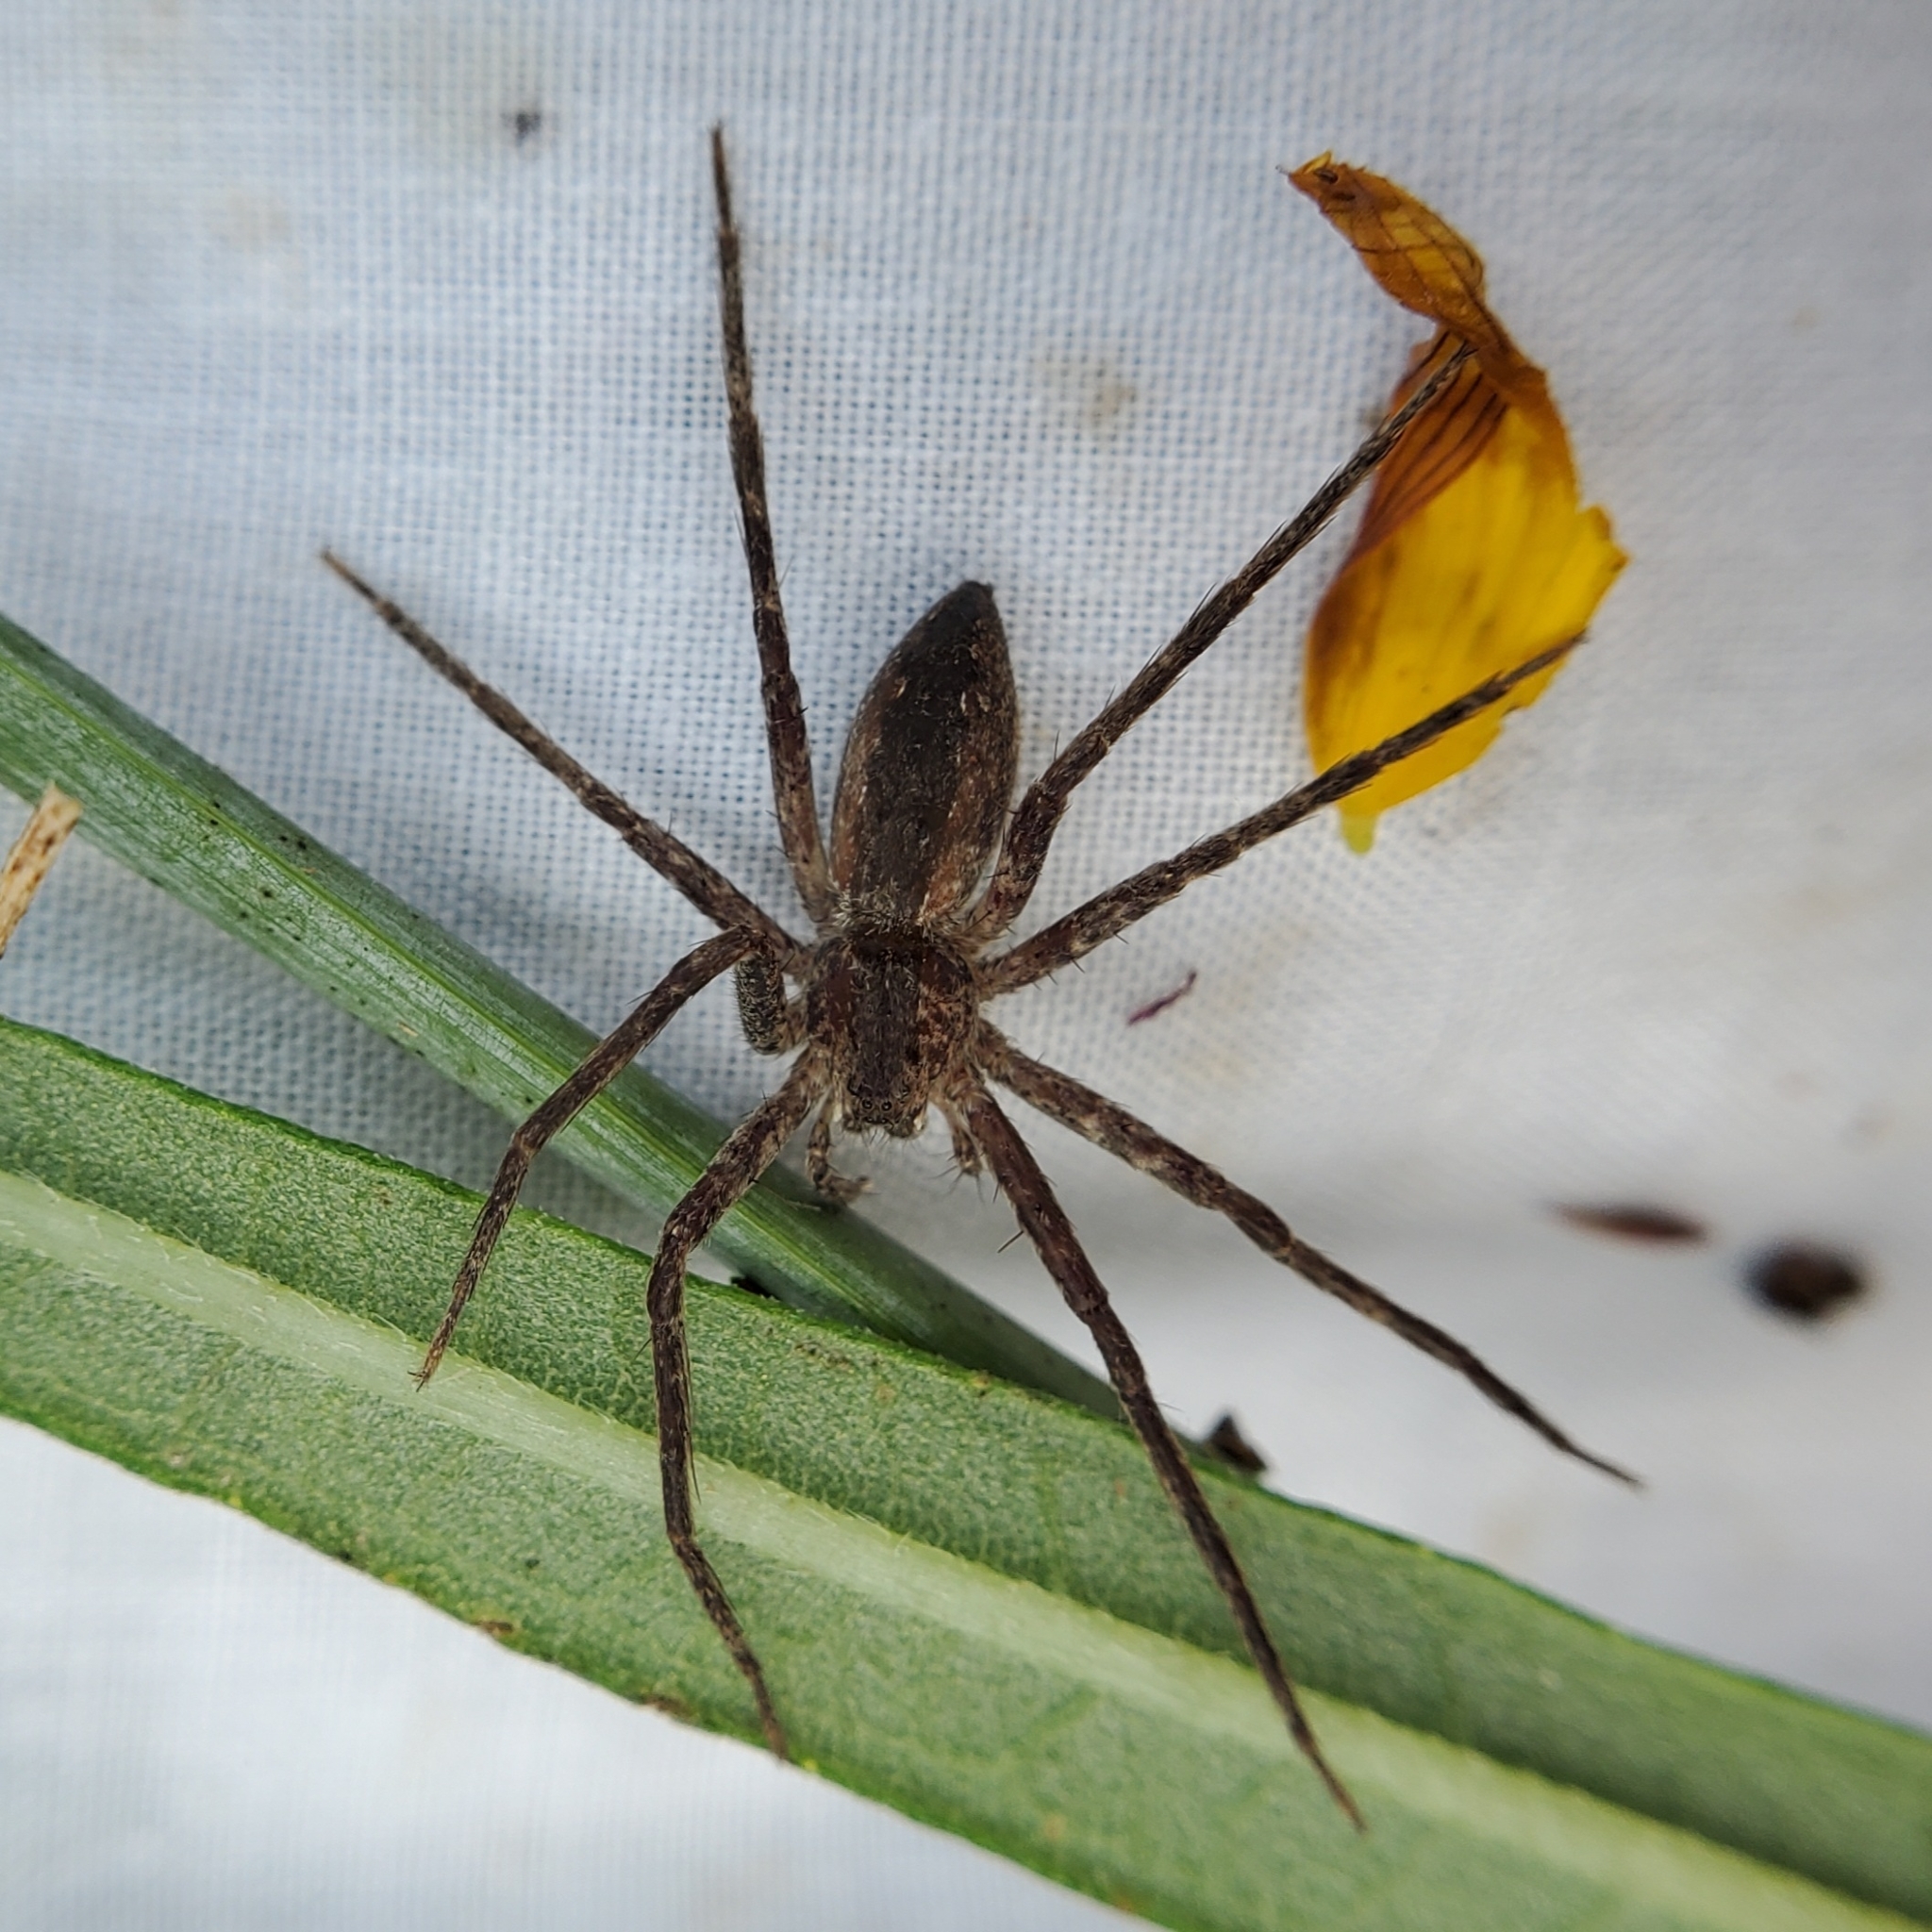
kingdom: Animalia
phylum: Arthropoda
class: Arachnida
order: Araneae
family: Pisauridae
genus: Pisaurina
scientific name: Pisaurina mira
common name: American nursery web spider
